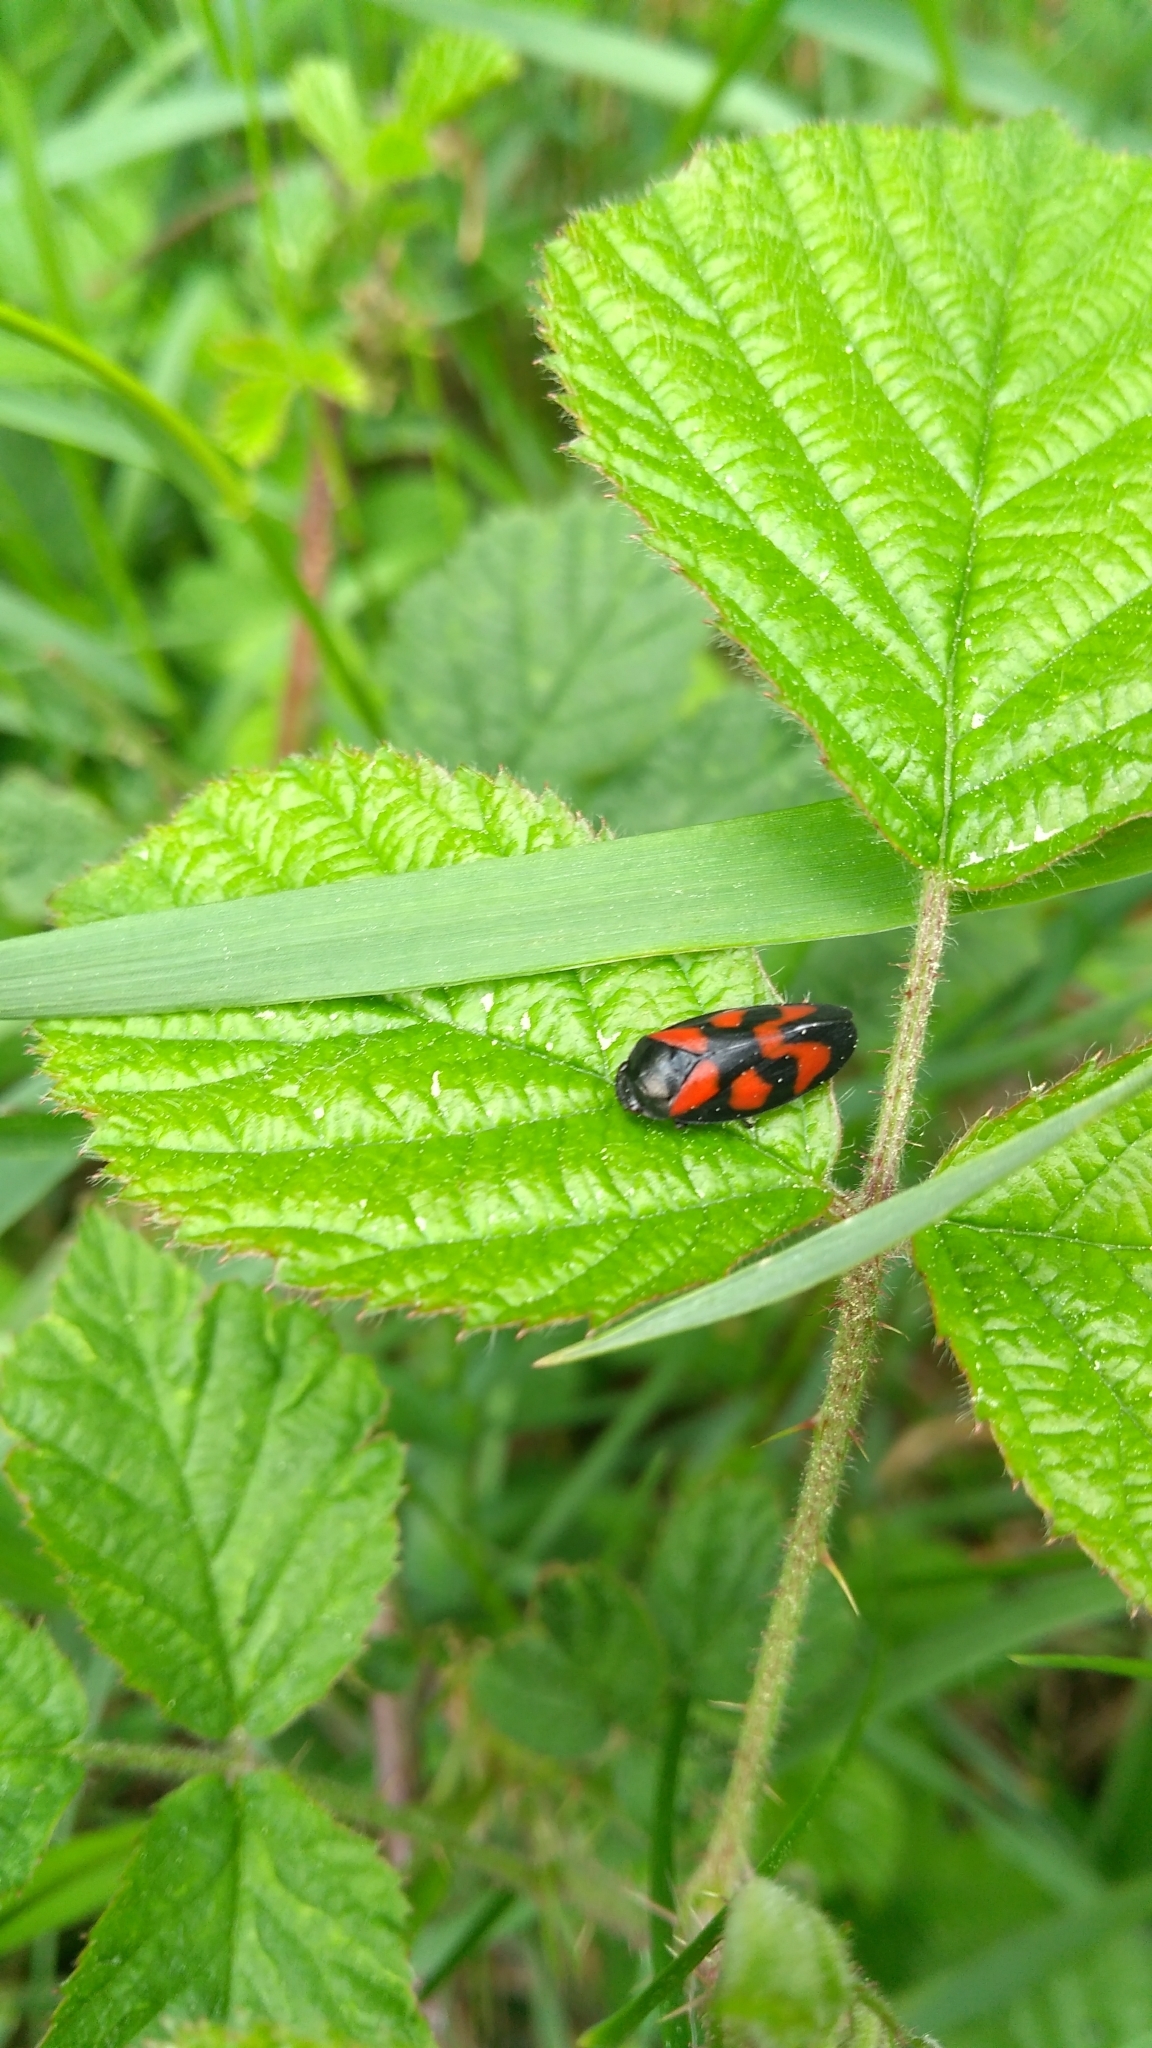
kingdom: Animalia
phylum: Arthropoda
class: Insecta
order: Hemiptera
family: Cercopidae
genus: Cercopis
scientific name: Cercopis vulnerata
